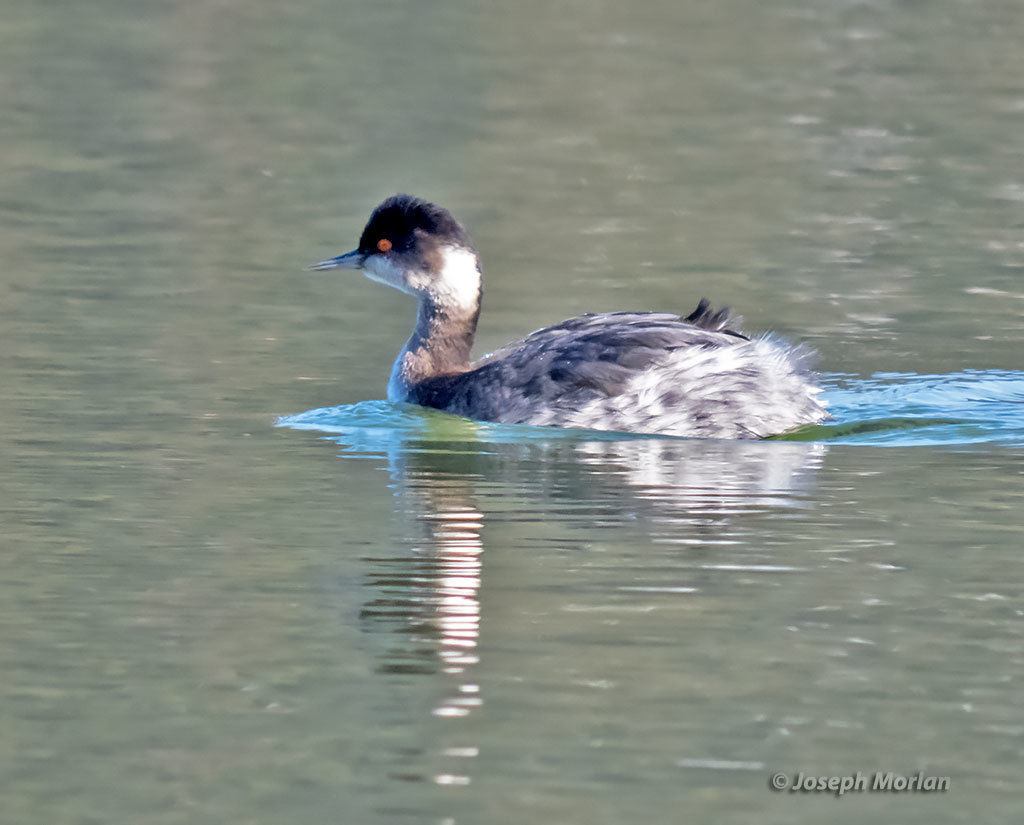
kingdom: Animalia
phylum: Chordata
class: Aves
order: Podicipediformes
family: Podicipedidae
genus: Podiceps
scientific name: Podiceps nigricollis
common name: Black-necked grebe
